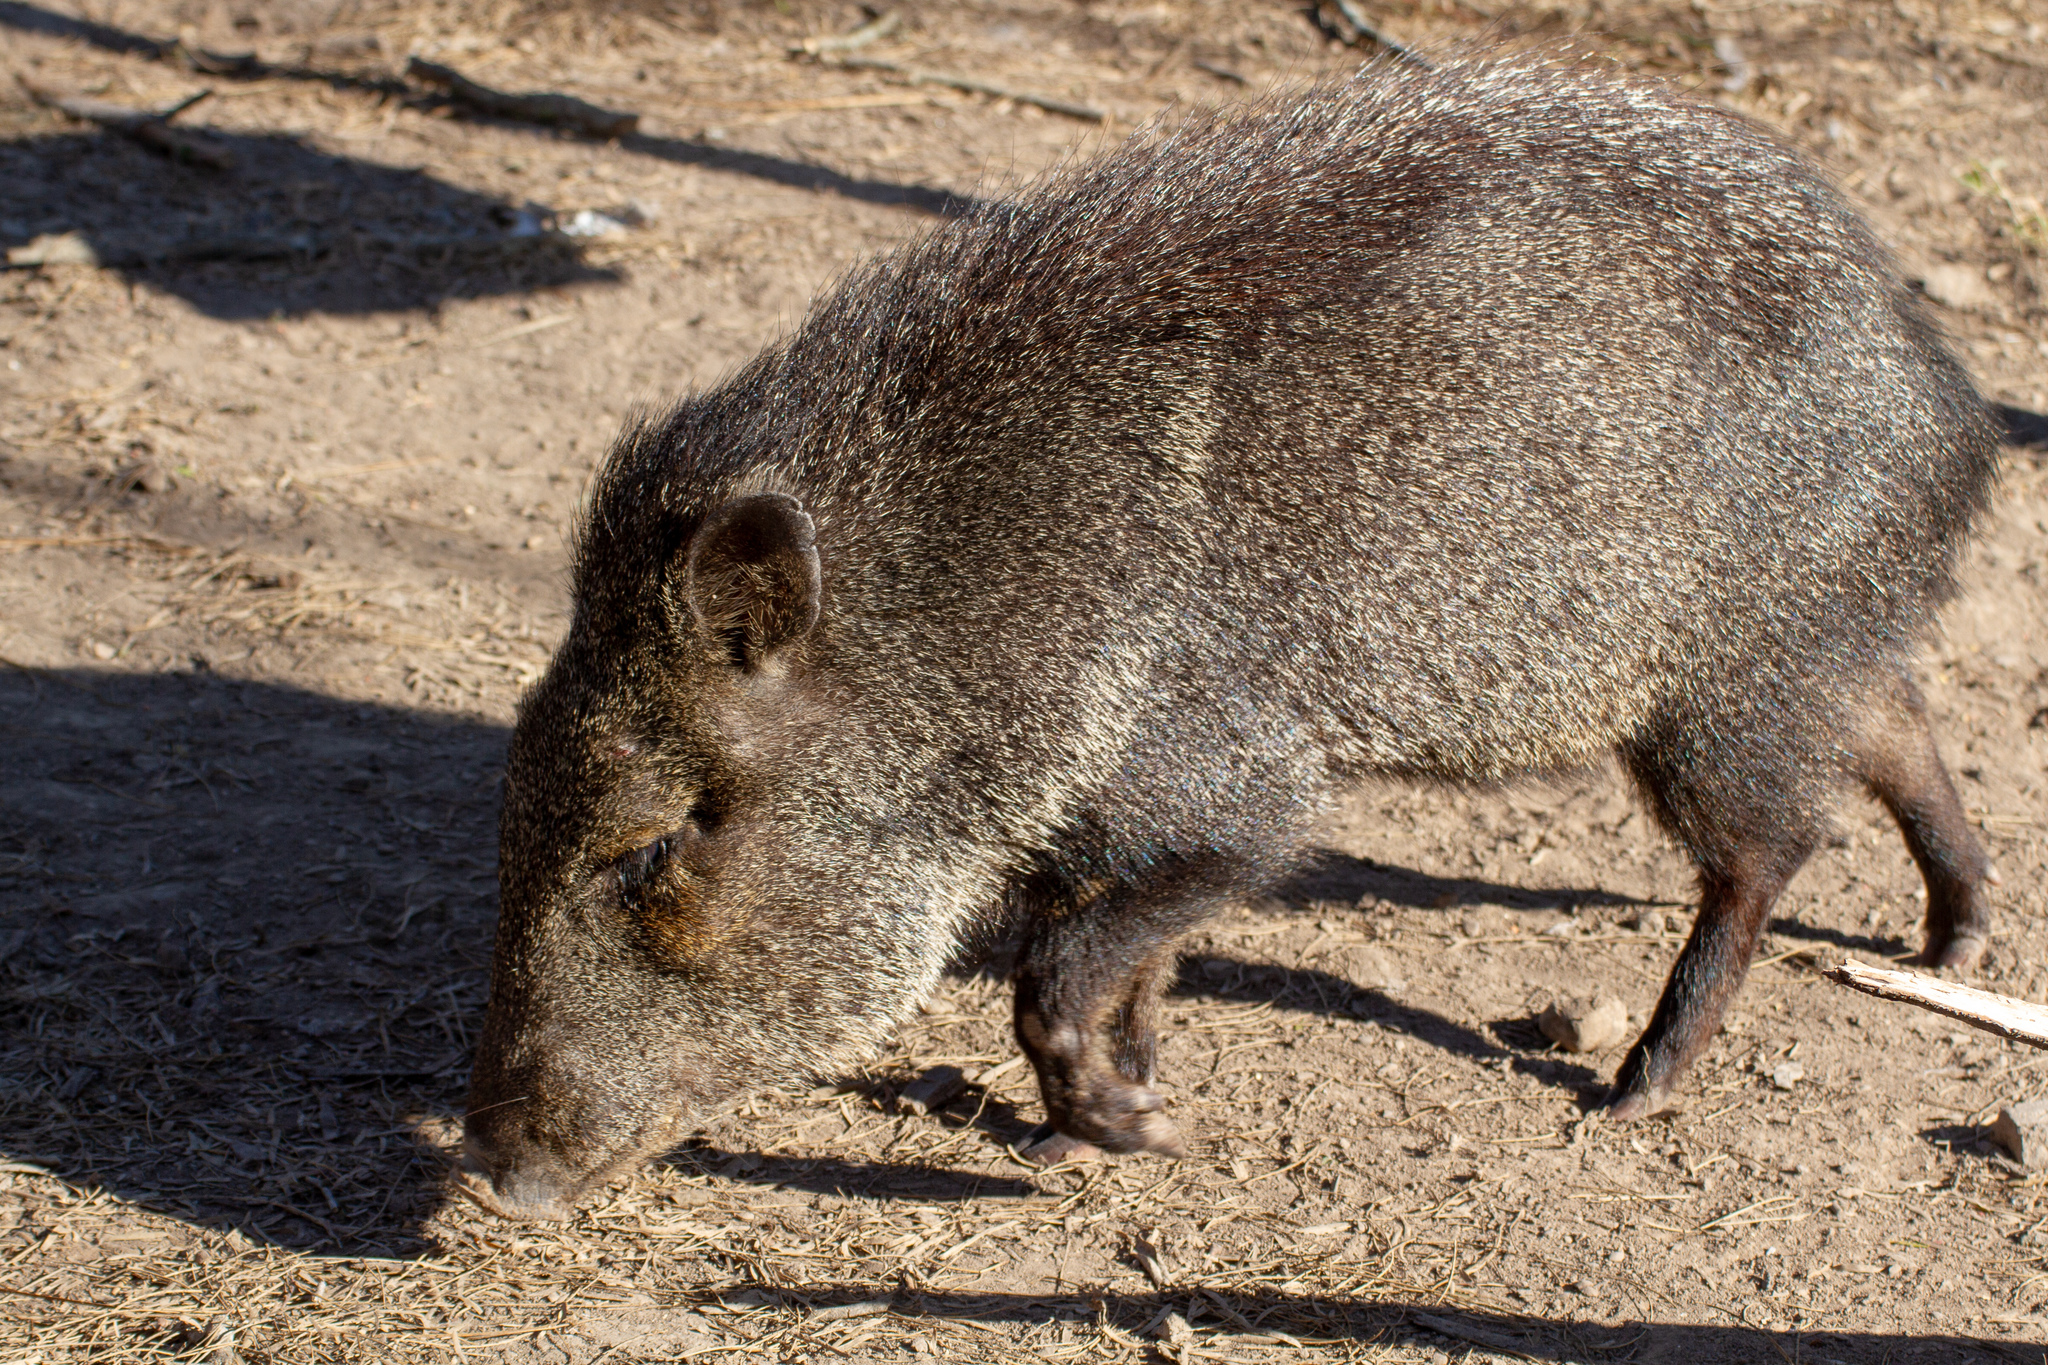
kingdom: Animalia
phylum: Chordata
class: Mammalia
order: Artiodactyla
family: Tayassuidae
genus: Pecari
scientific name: Pecari tajacu
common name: Collared peccary
